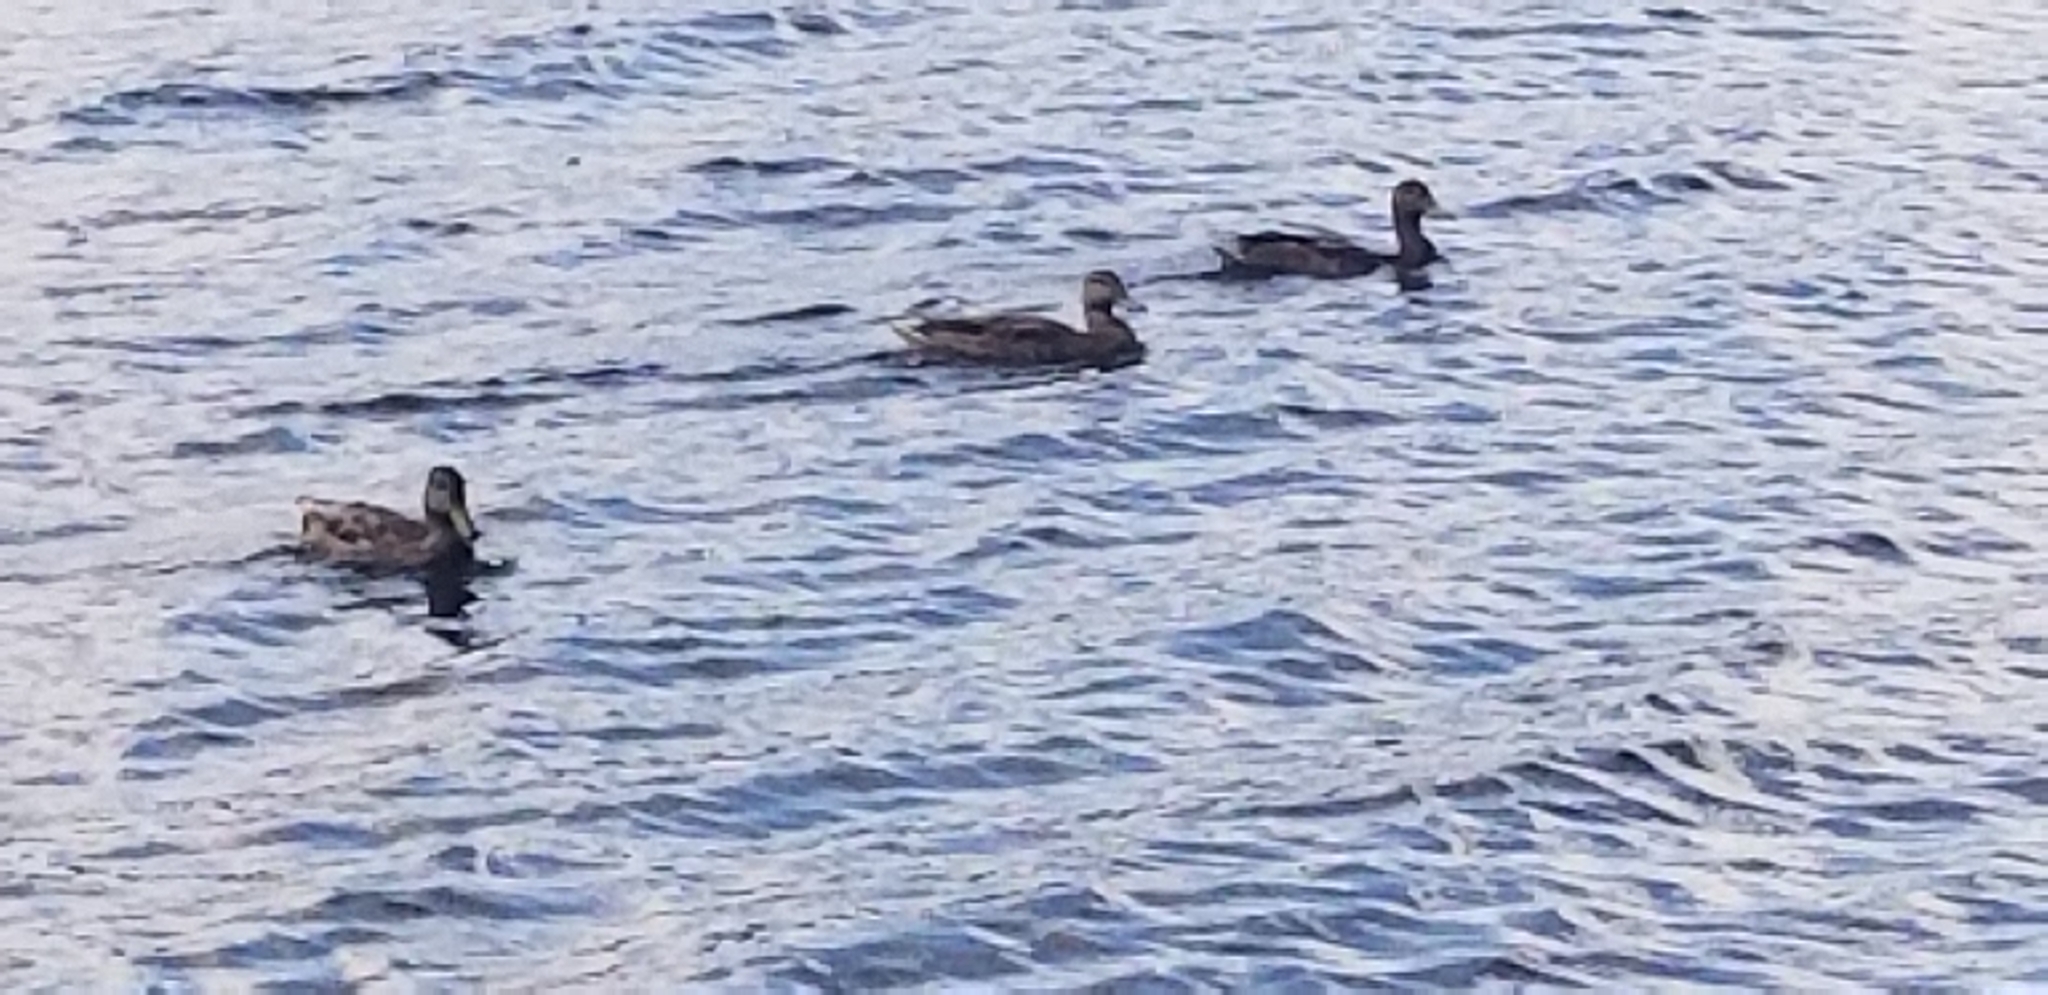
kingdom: Animalia
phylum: Chordata
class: Aves
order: Anseriformes
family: Anatidae
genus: Anas
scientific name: Anas platyrhynchos
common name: Mallard
